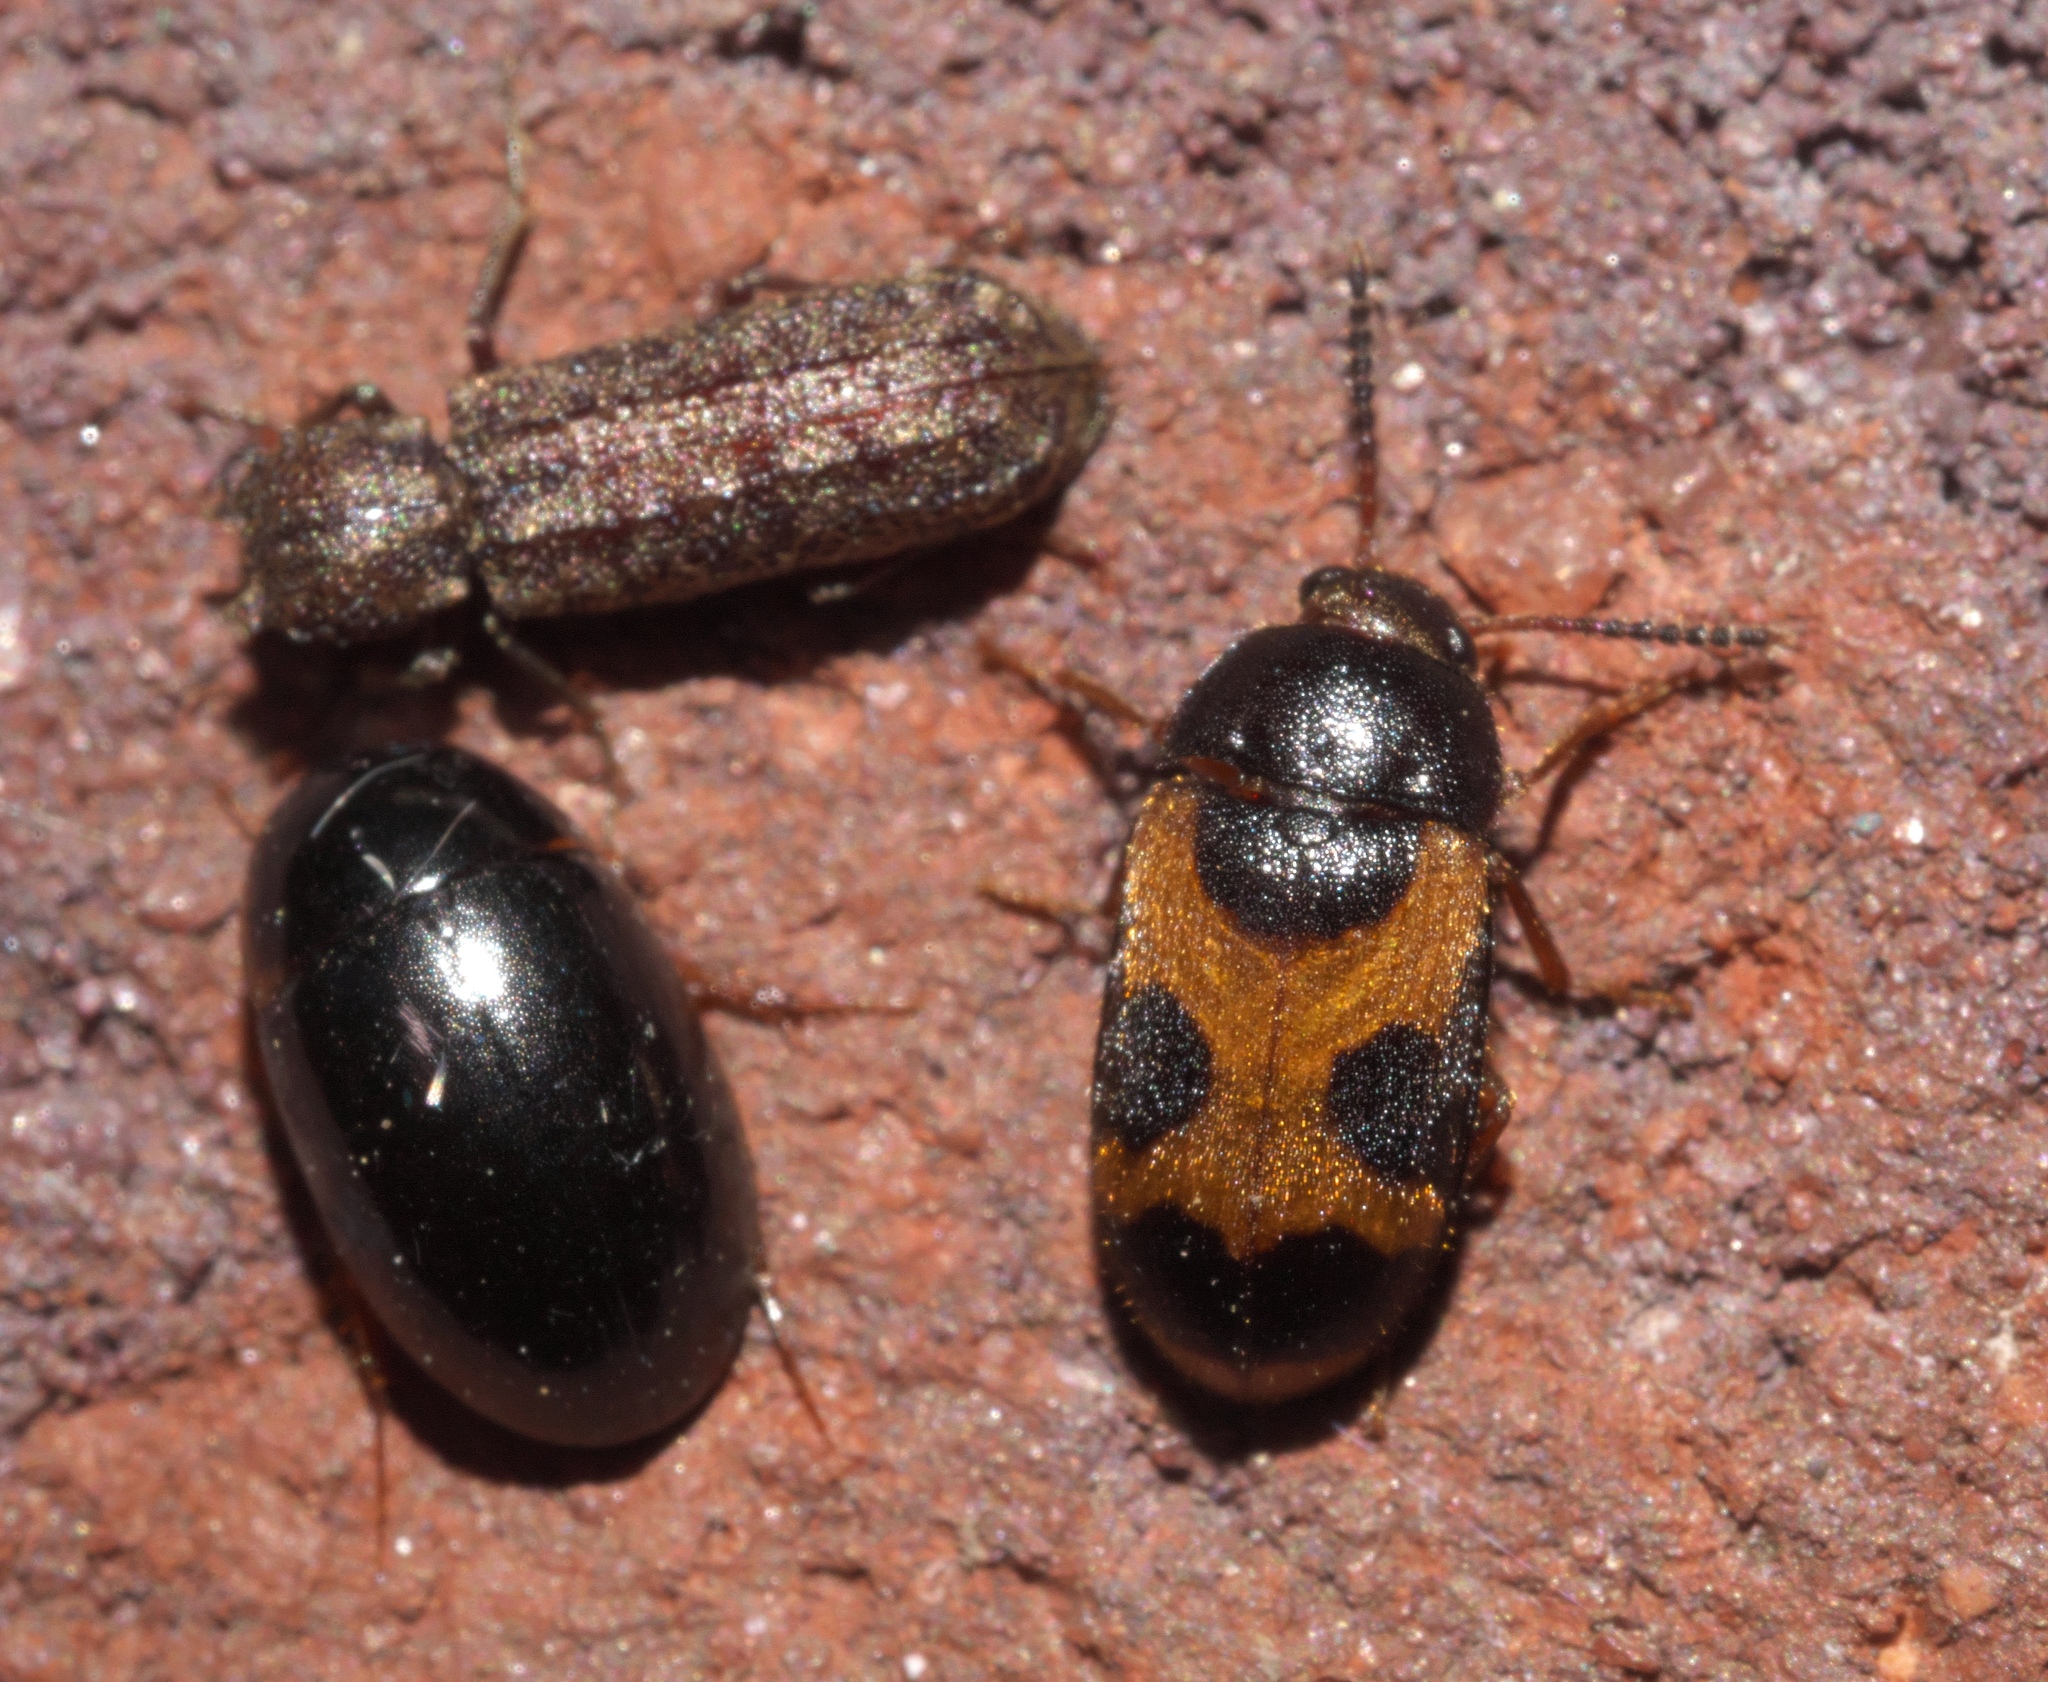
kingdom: Animalia
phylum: Arthropoda
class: Insecta
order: Coleoptera
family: Mycetophagidae
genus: Mycetophagus
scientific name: Mycetophagus punctatus
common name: Hairy fungus beetle
